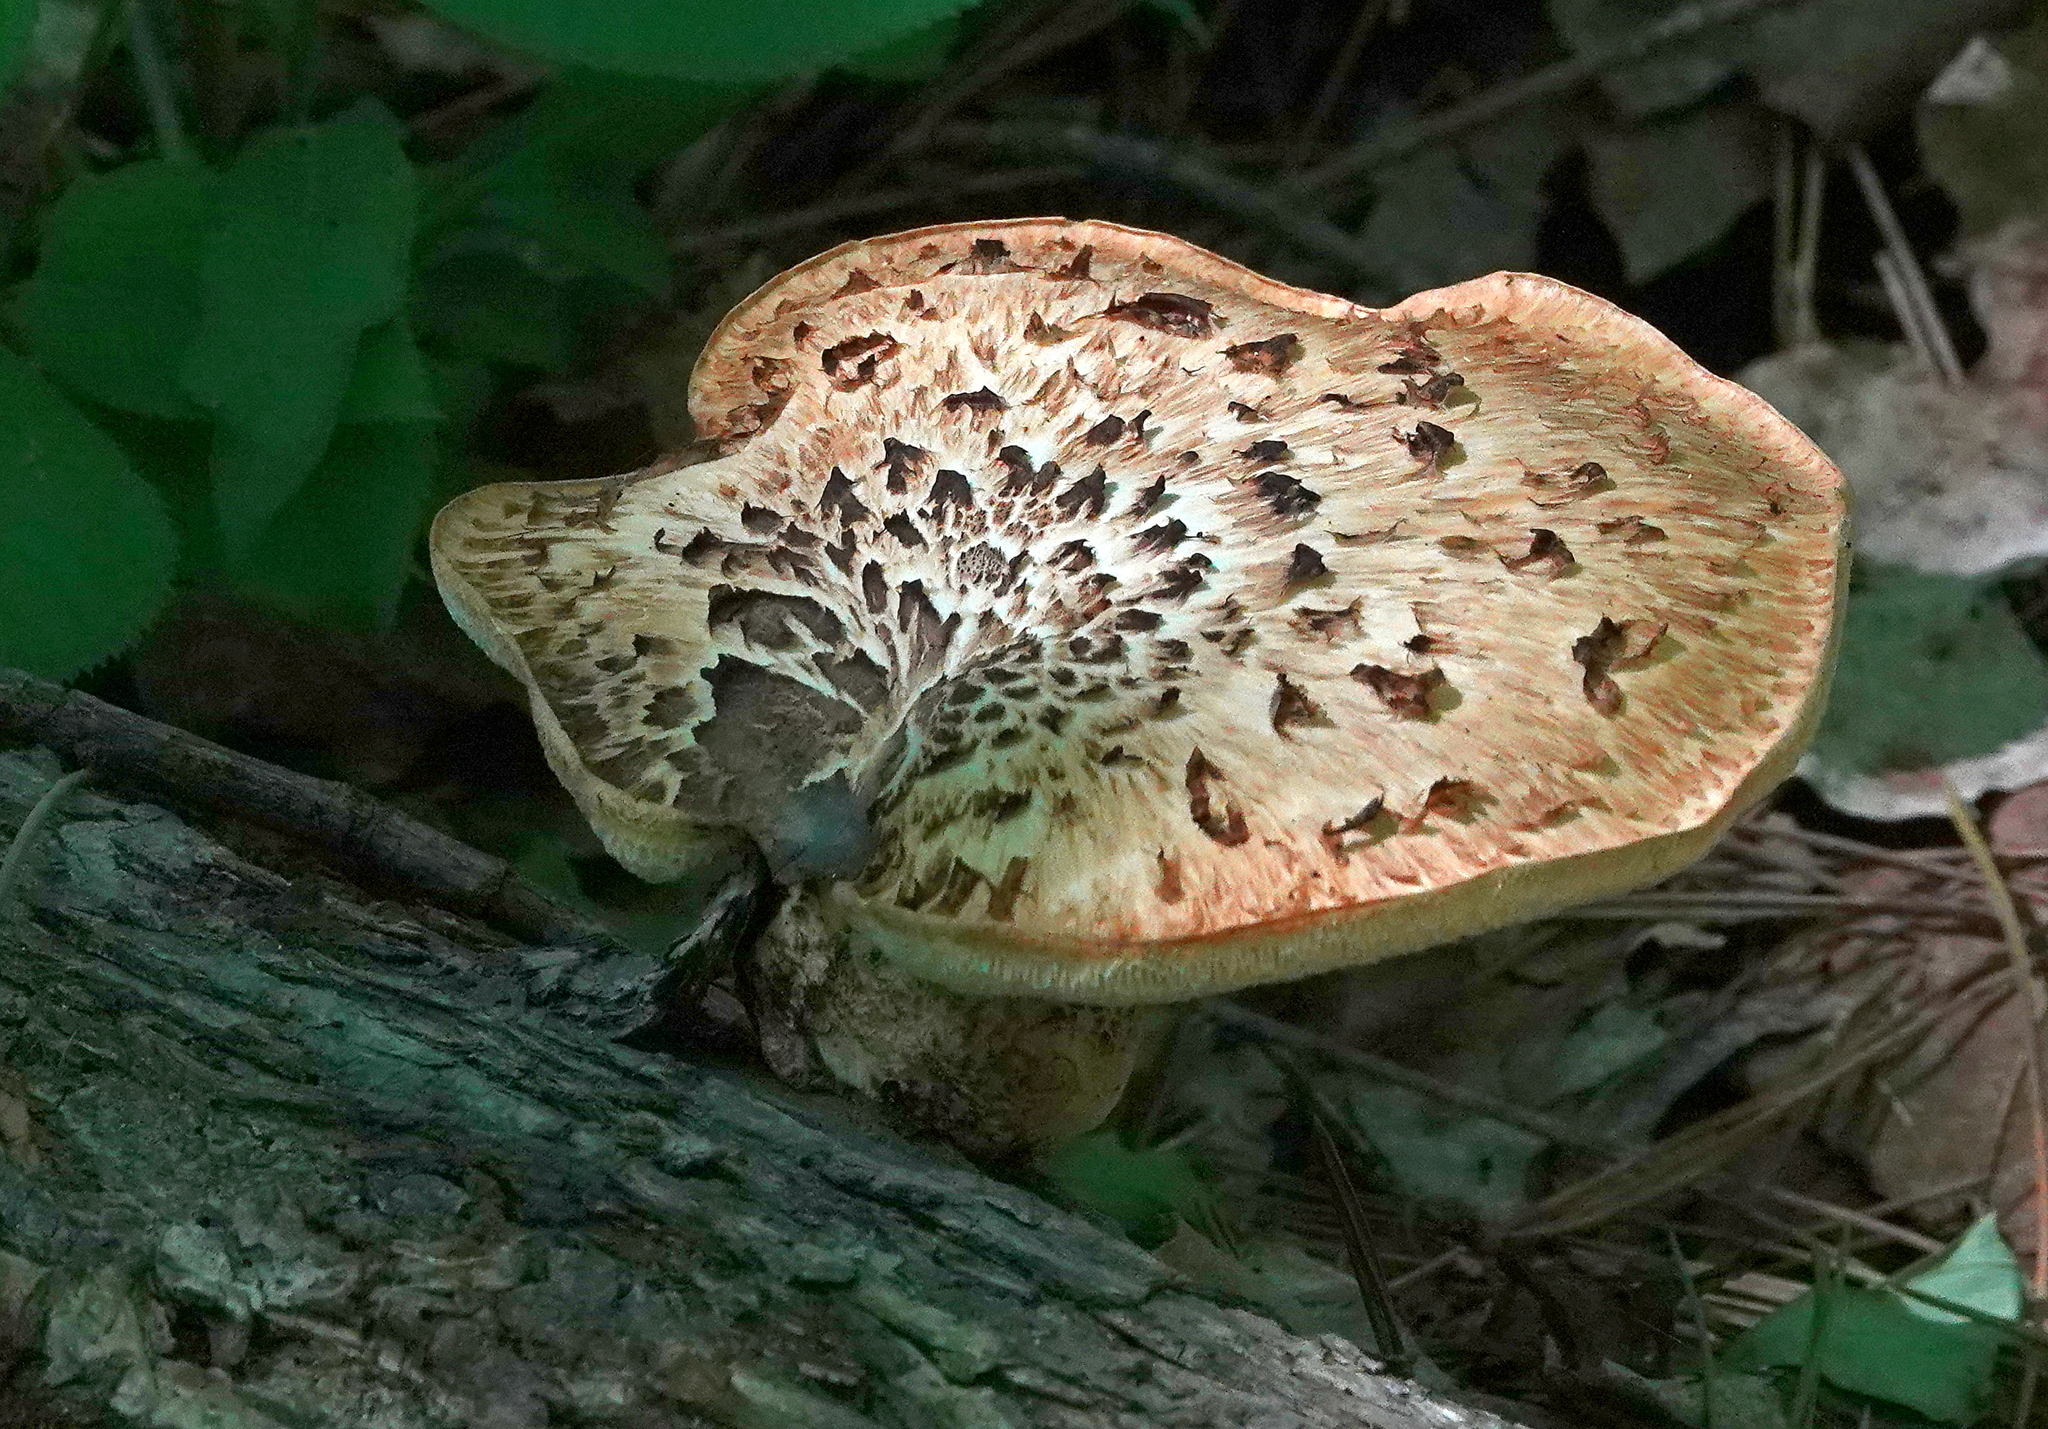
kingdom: Fungi
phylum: Basidiomycota
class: Agaricomycetes
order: Polyporales
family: Polyporaceae
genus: Cerioporus
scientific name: Cerioporus squamosus
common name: Dryad's saddle
